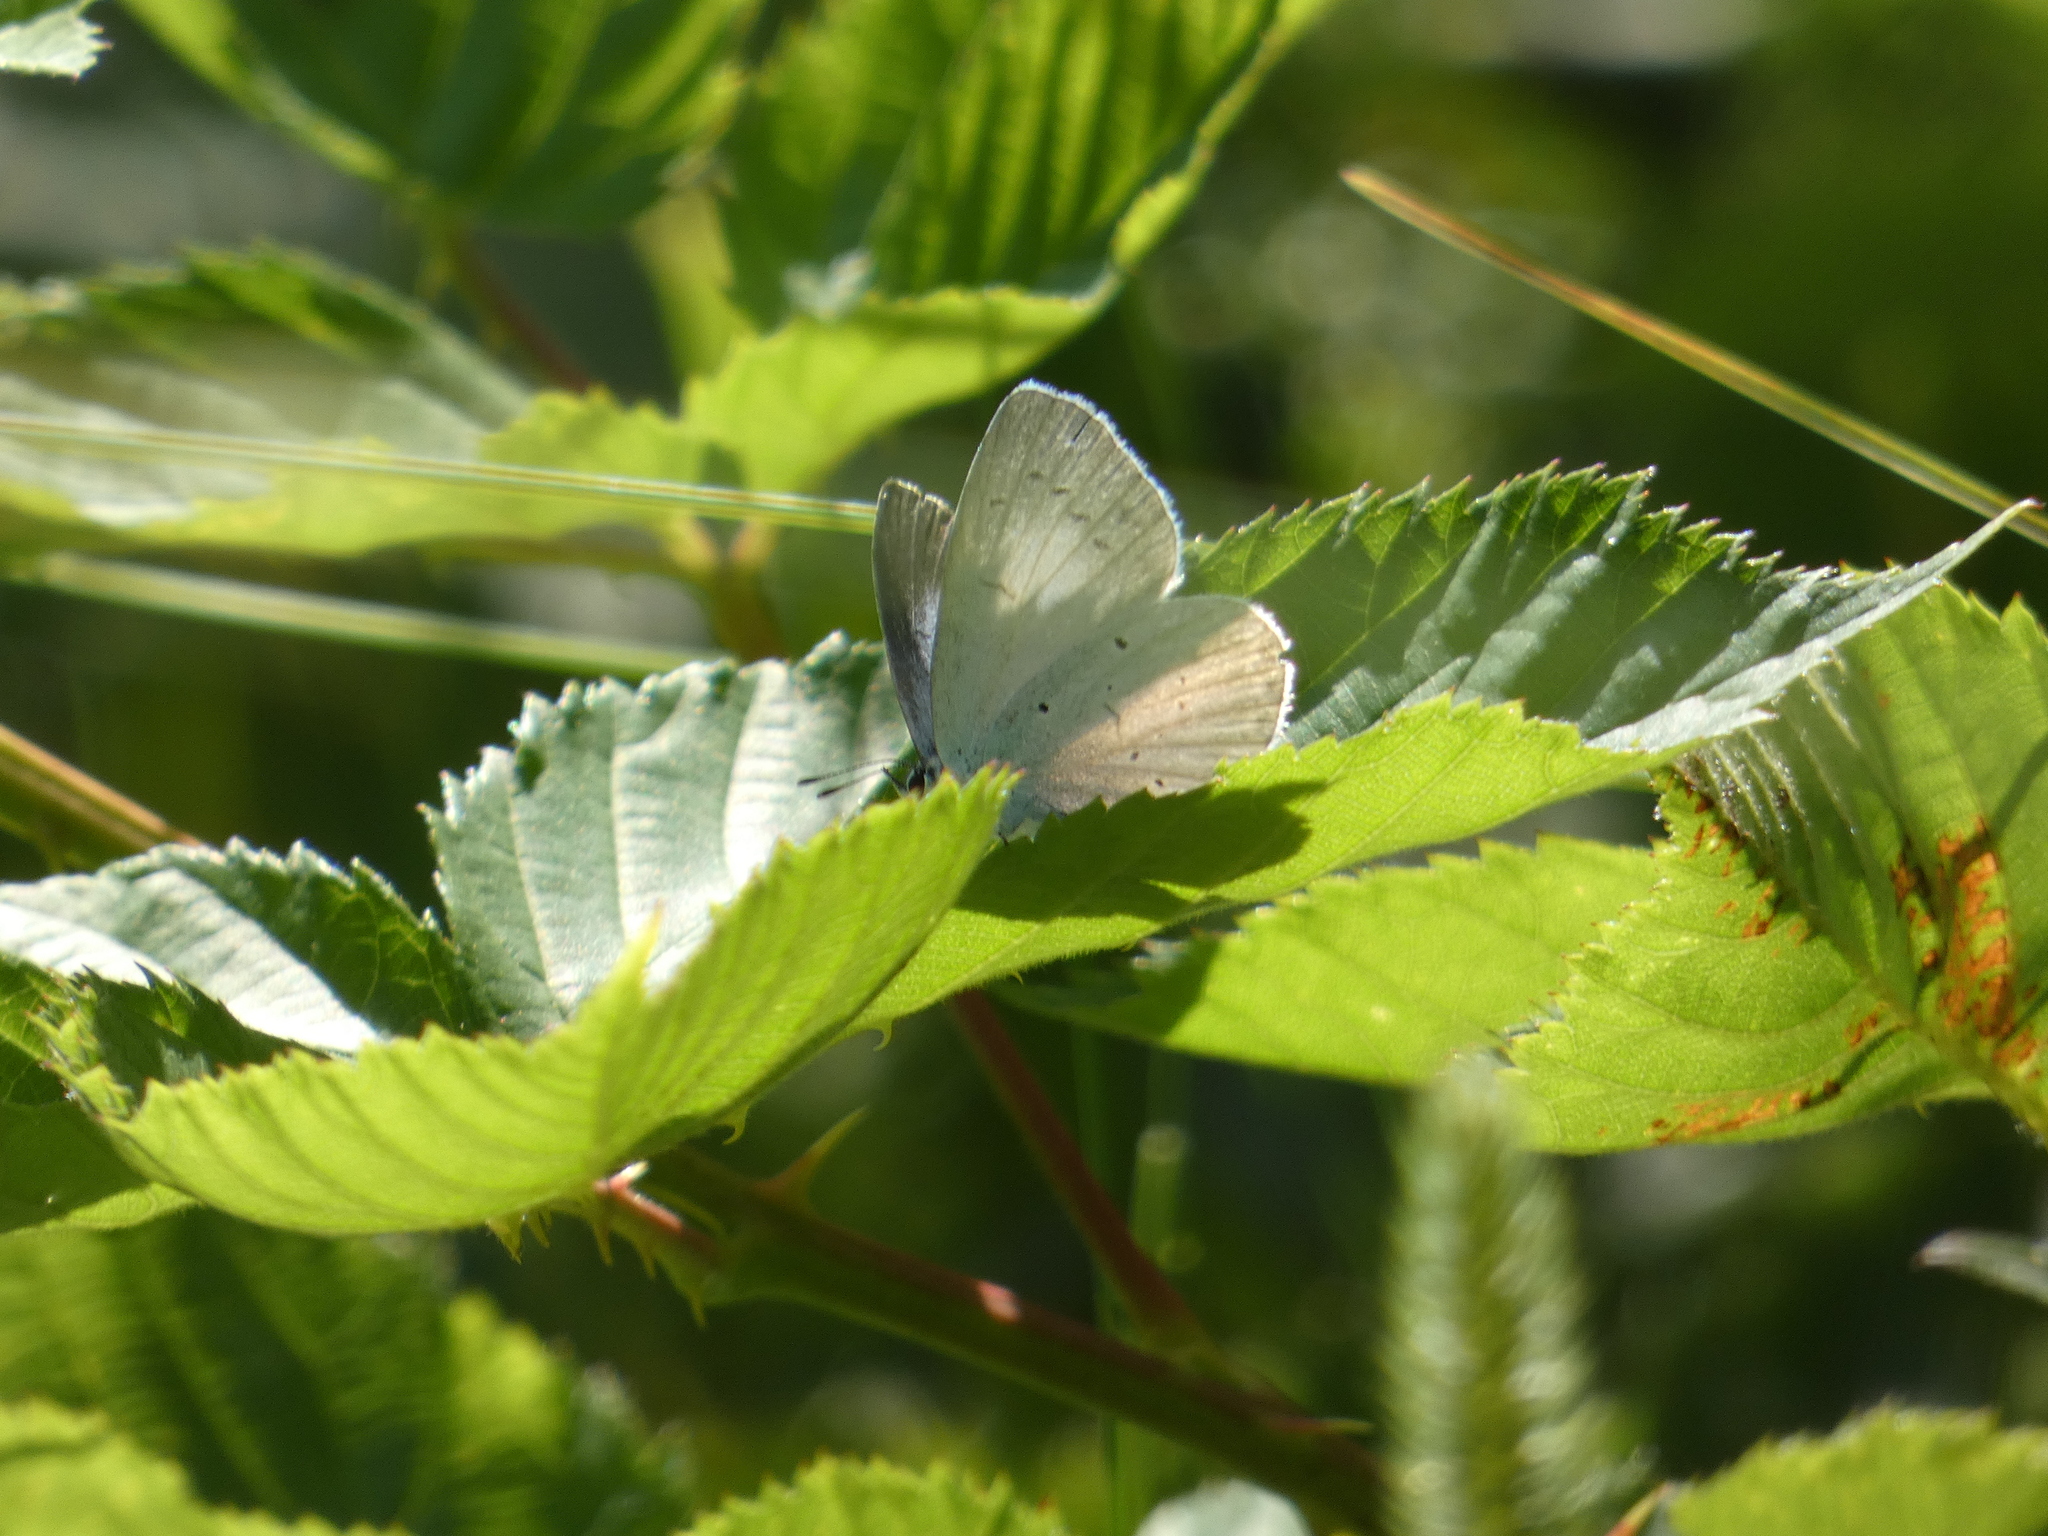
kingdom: Animalia
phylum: Arthropoda
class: Insecta
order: Lepidoptera
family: Lycaenidae
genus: Celastrina
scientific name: Celastrina argiolus
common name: Holly blue
